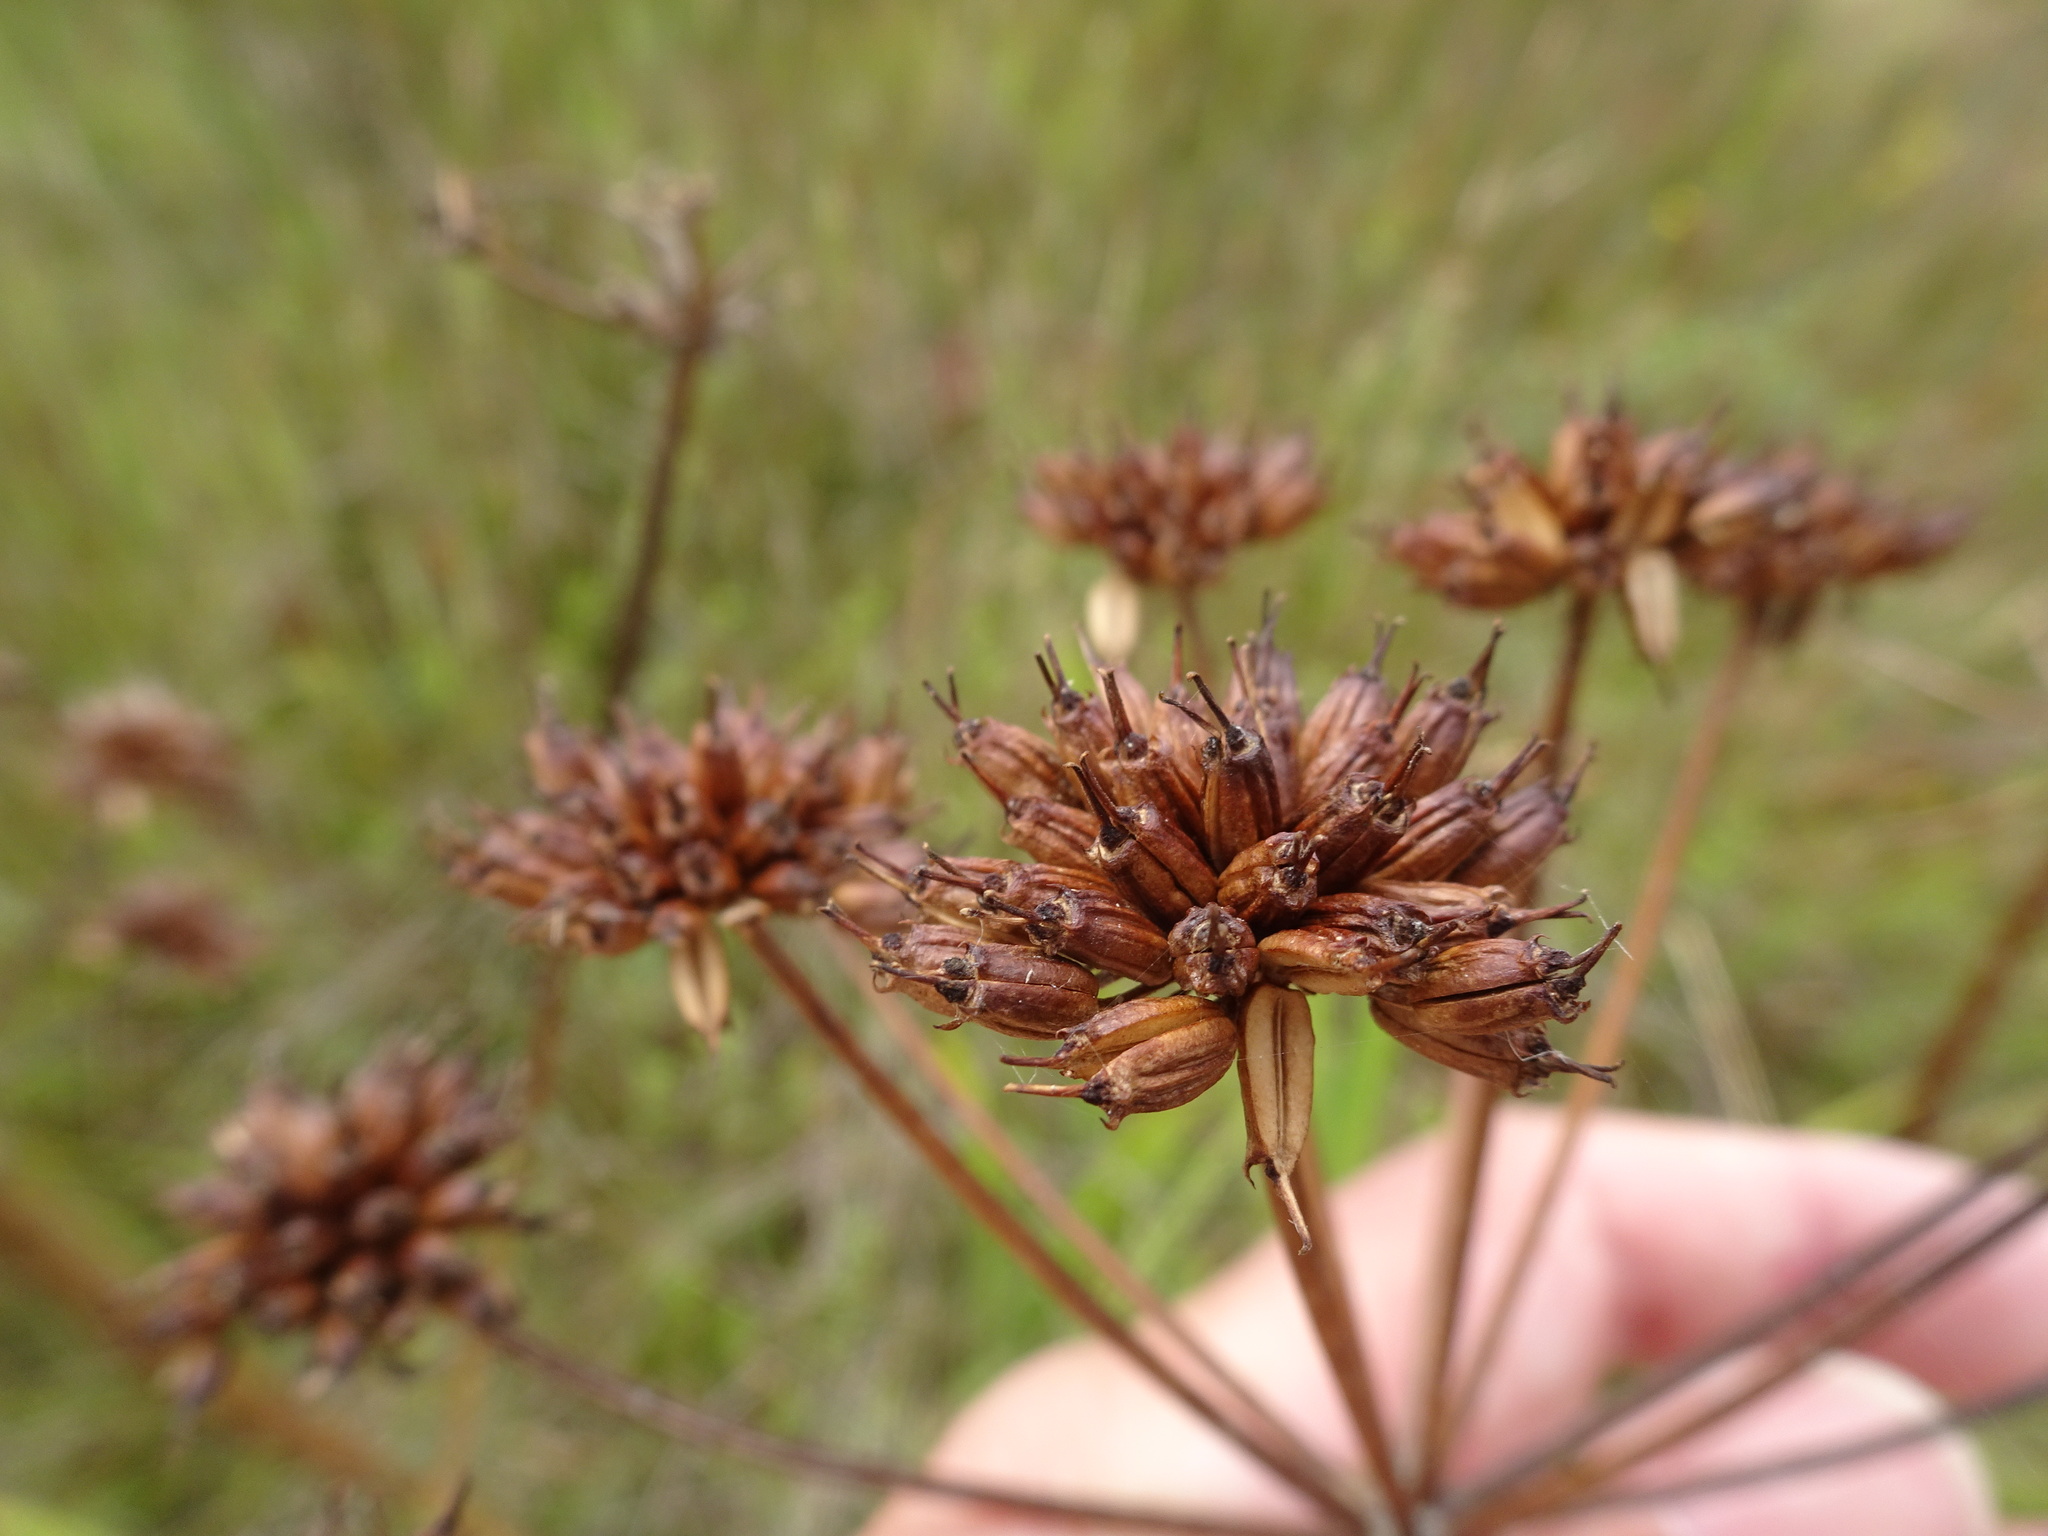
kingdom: Plantae
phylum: Tracheophyta
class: Magnoliopsida
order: Apiales
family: Apiaceae
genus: Oenanthe
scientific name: Oenanthe crocata
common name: Hemlock water-dropwort
